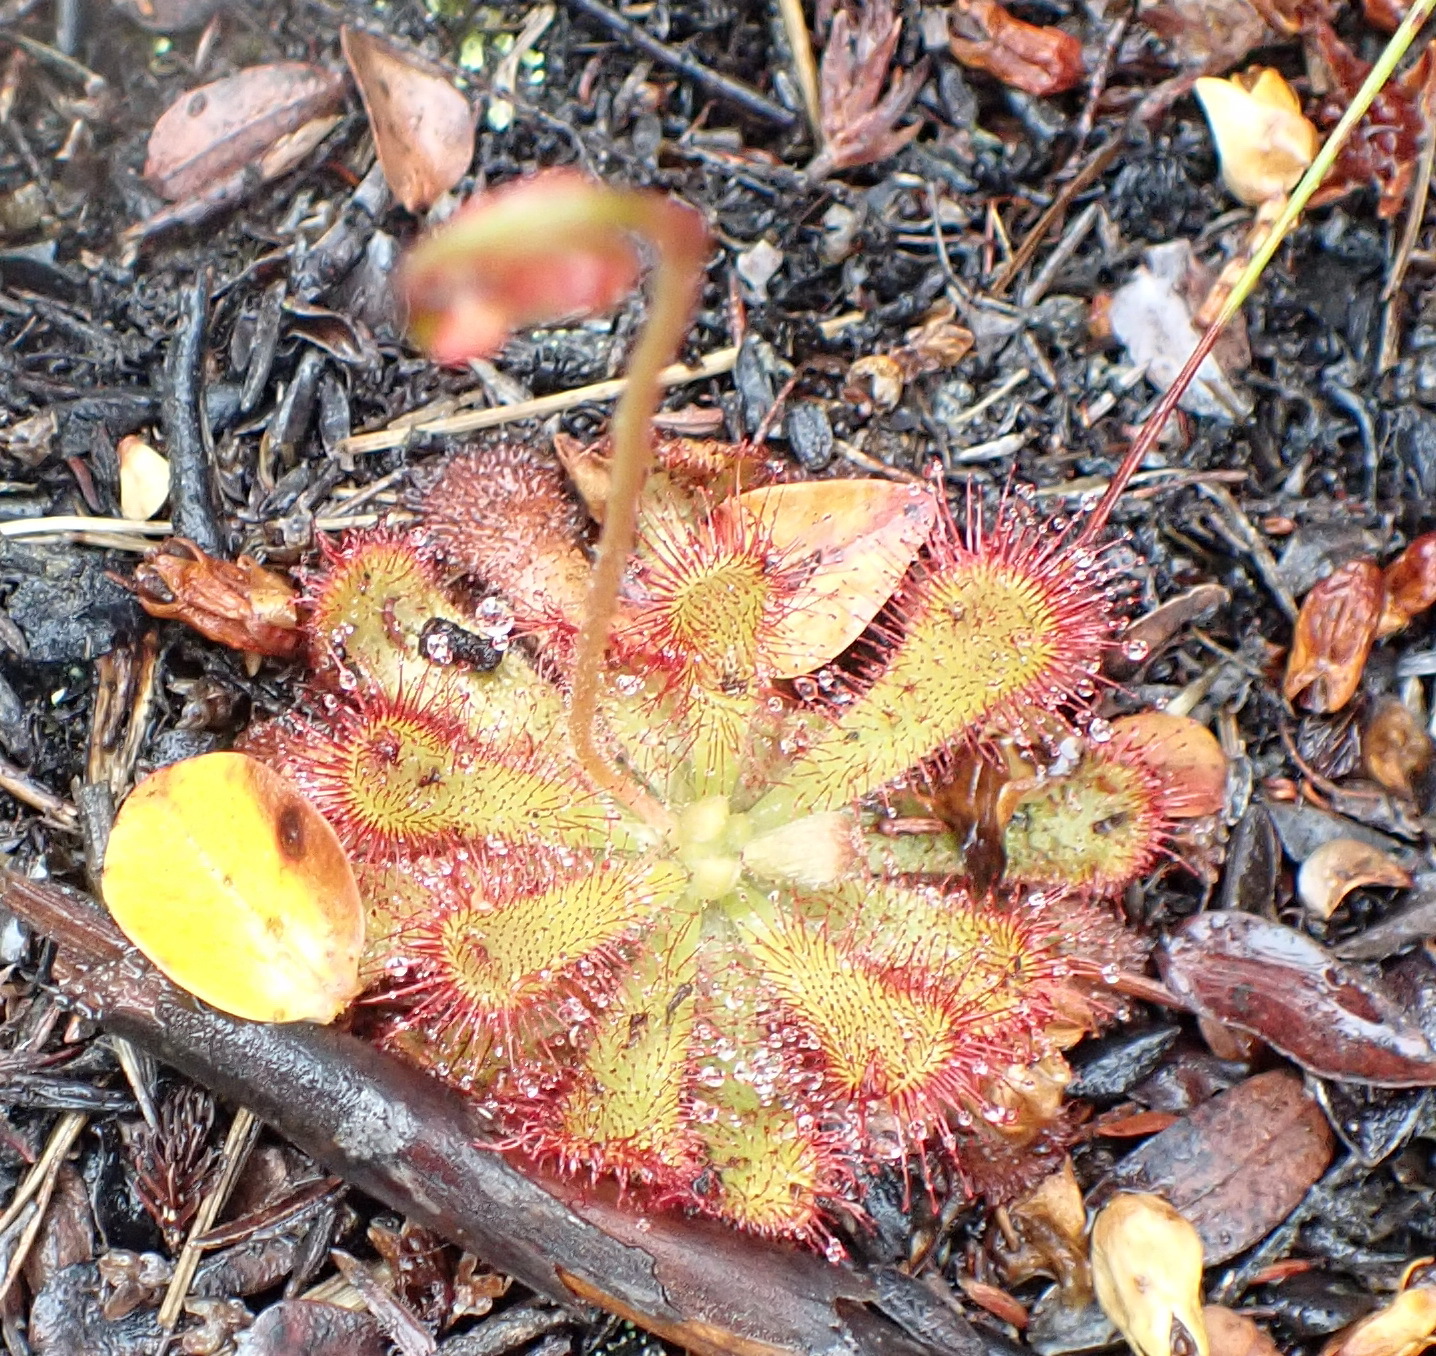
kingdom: Plantae
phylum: Tracheophyta
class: Magnoliopsida
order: Caryophyllales
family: Droseraceae
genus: Drosera
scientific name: Drosera aliciae
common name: Alice sundew
